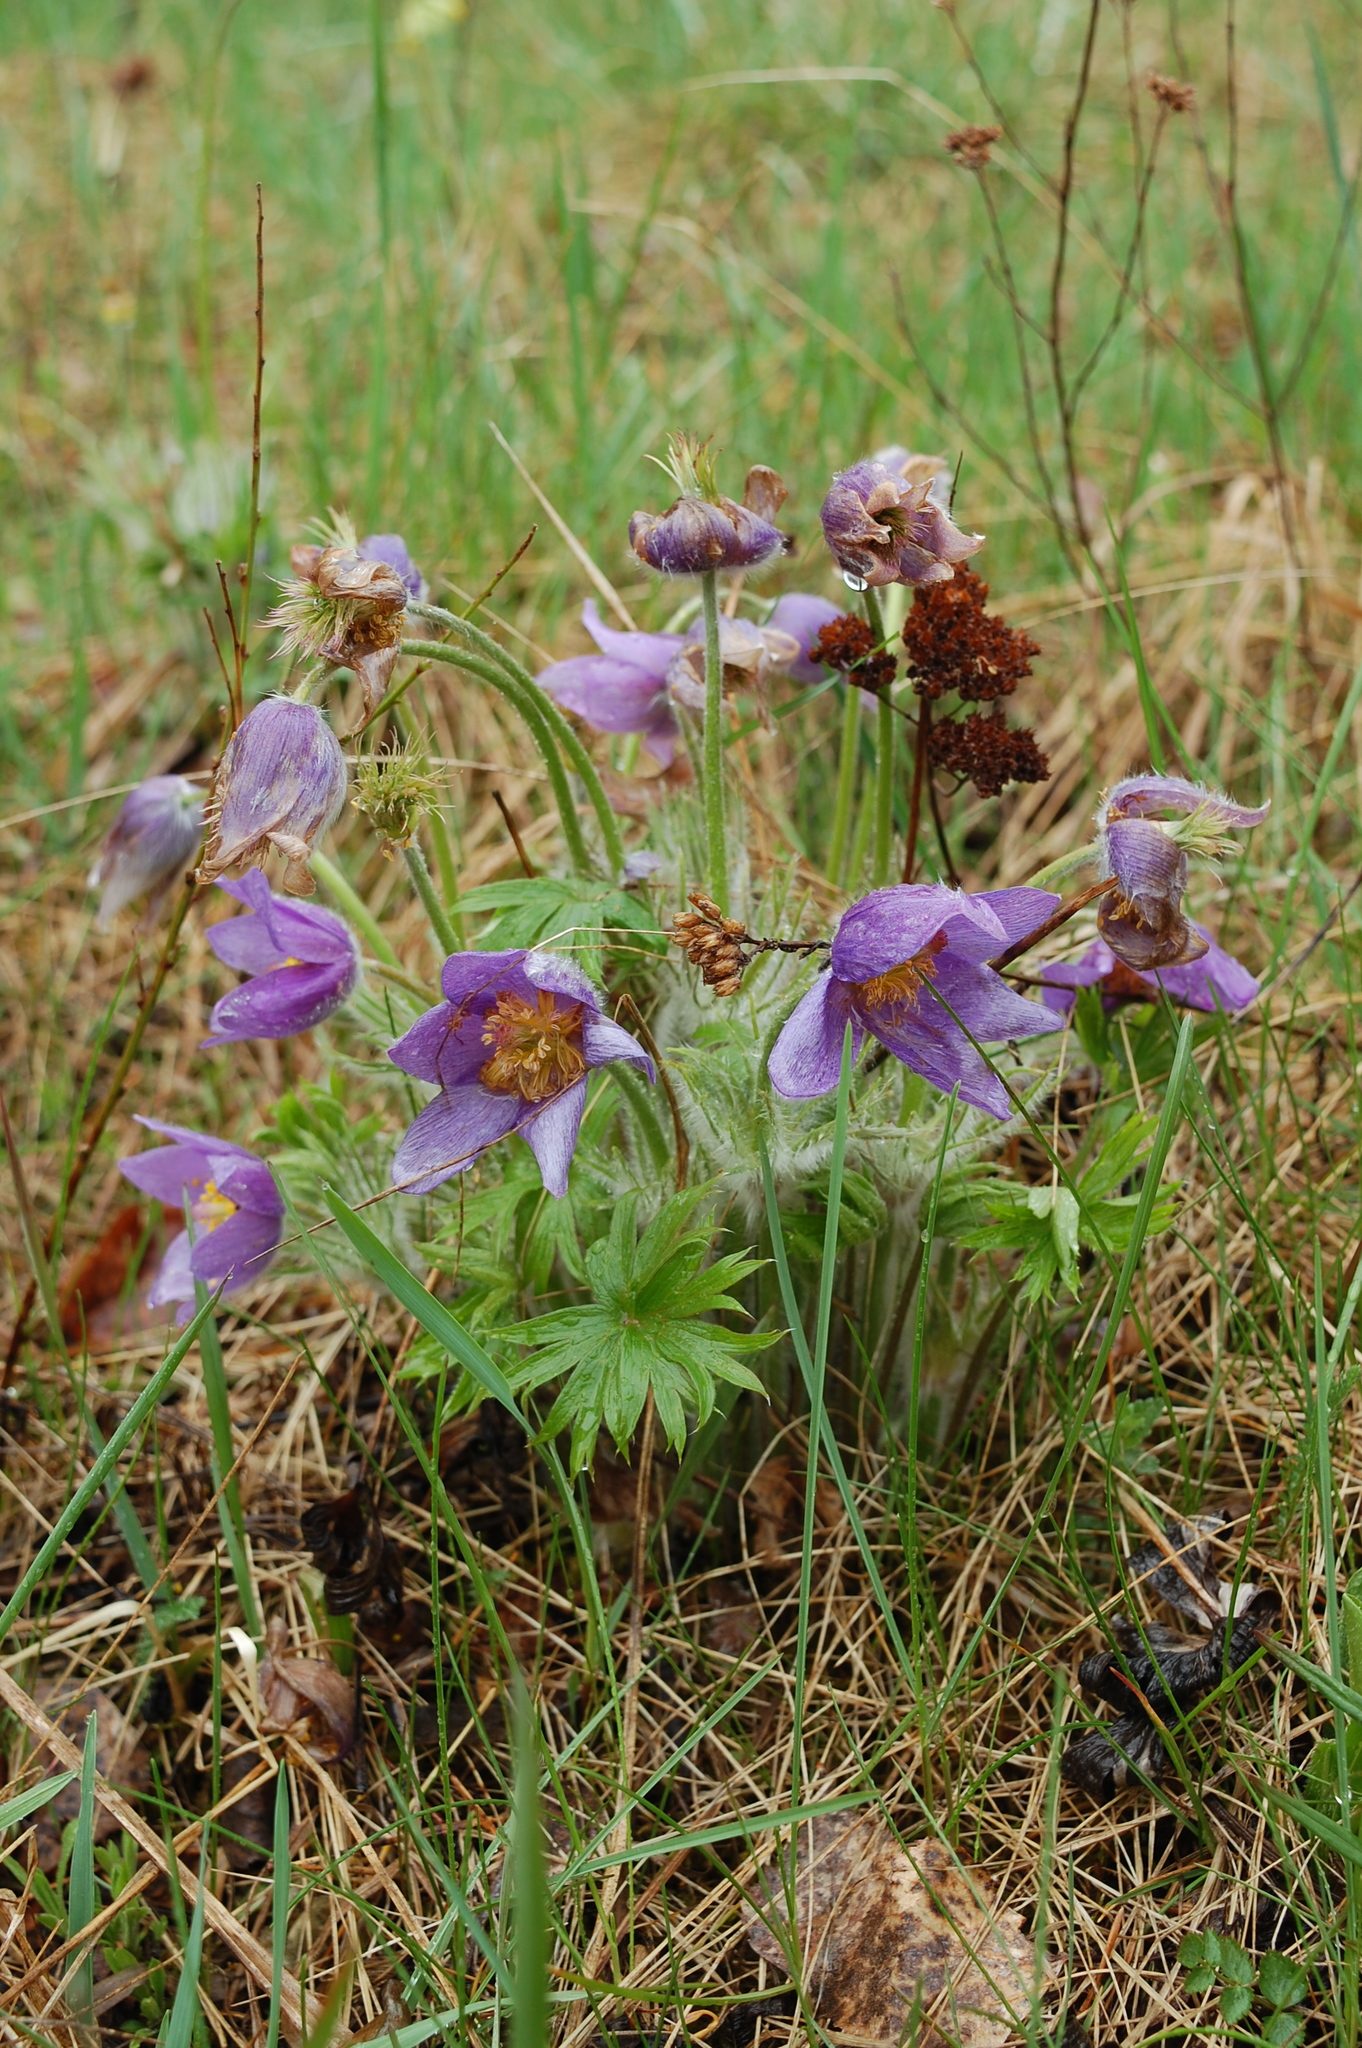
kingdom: Plantae
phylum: Tracheophyta
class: Magnoliopsida
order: Ranunculales
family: Ranunculaceae
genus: Pulsatilla
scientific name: Pulsatilla patens
